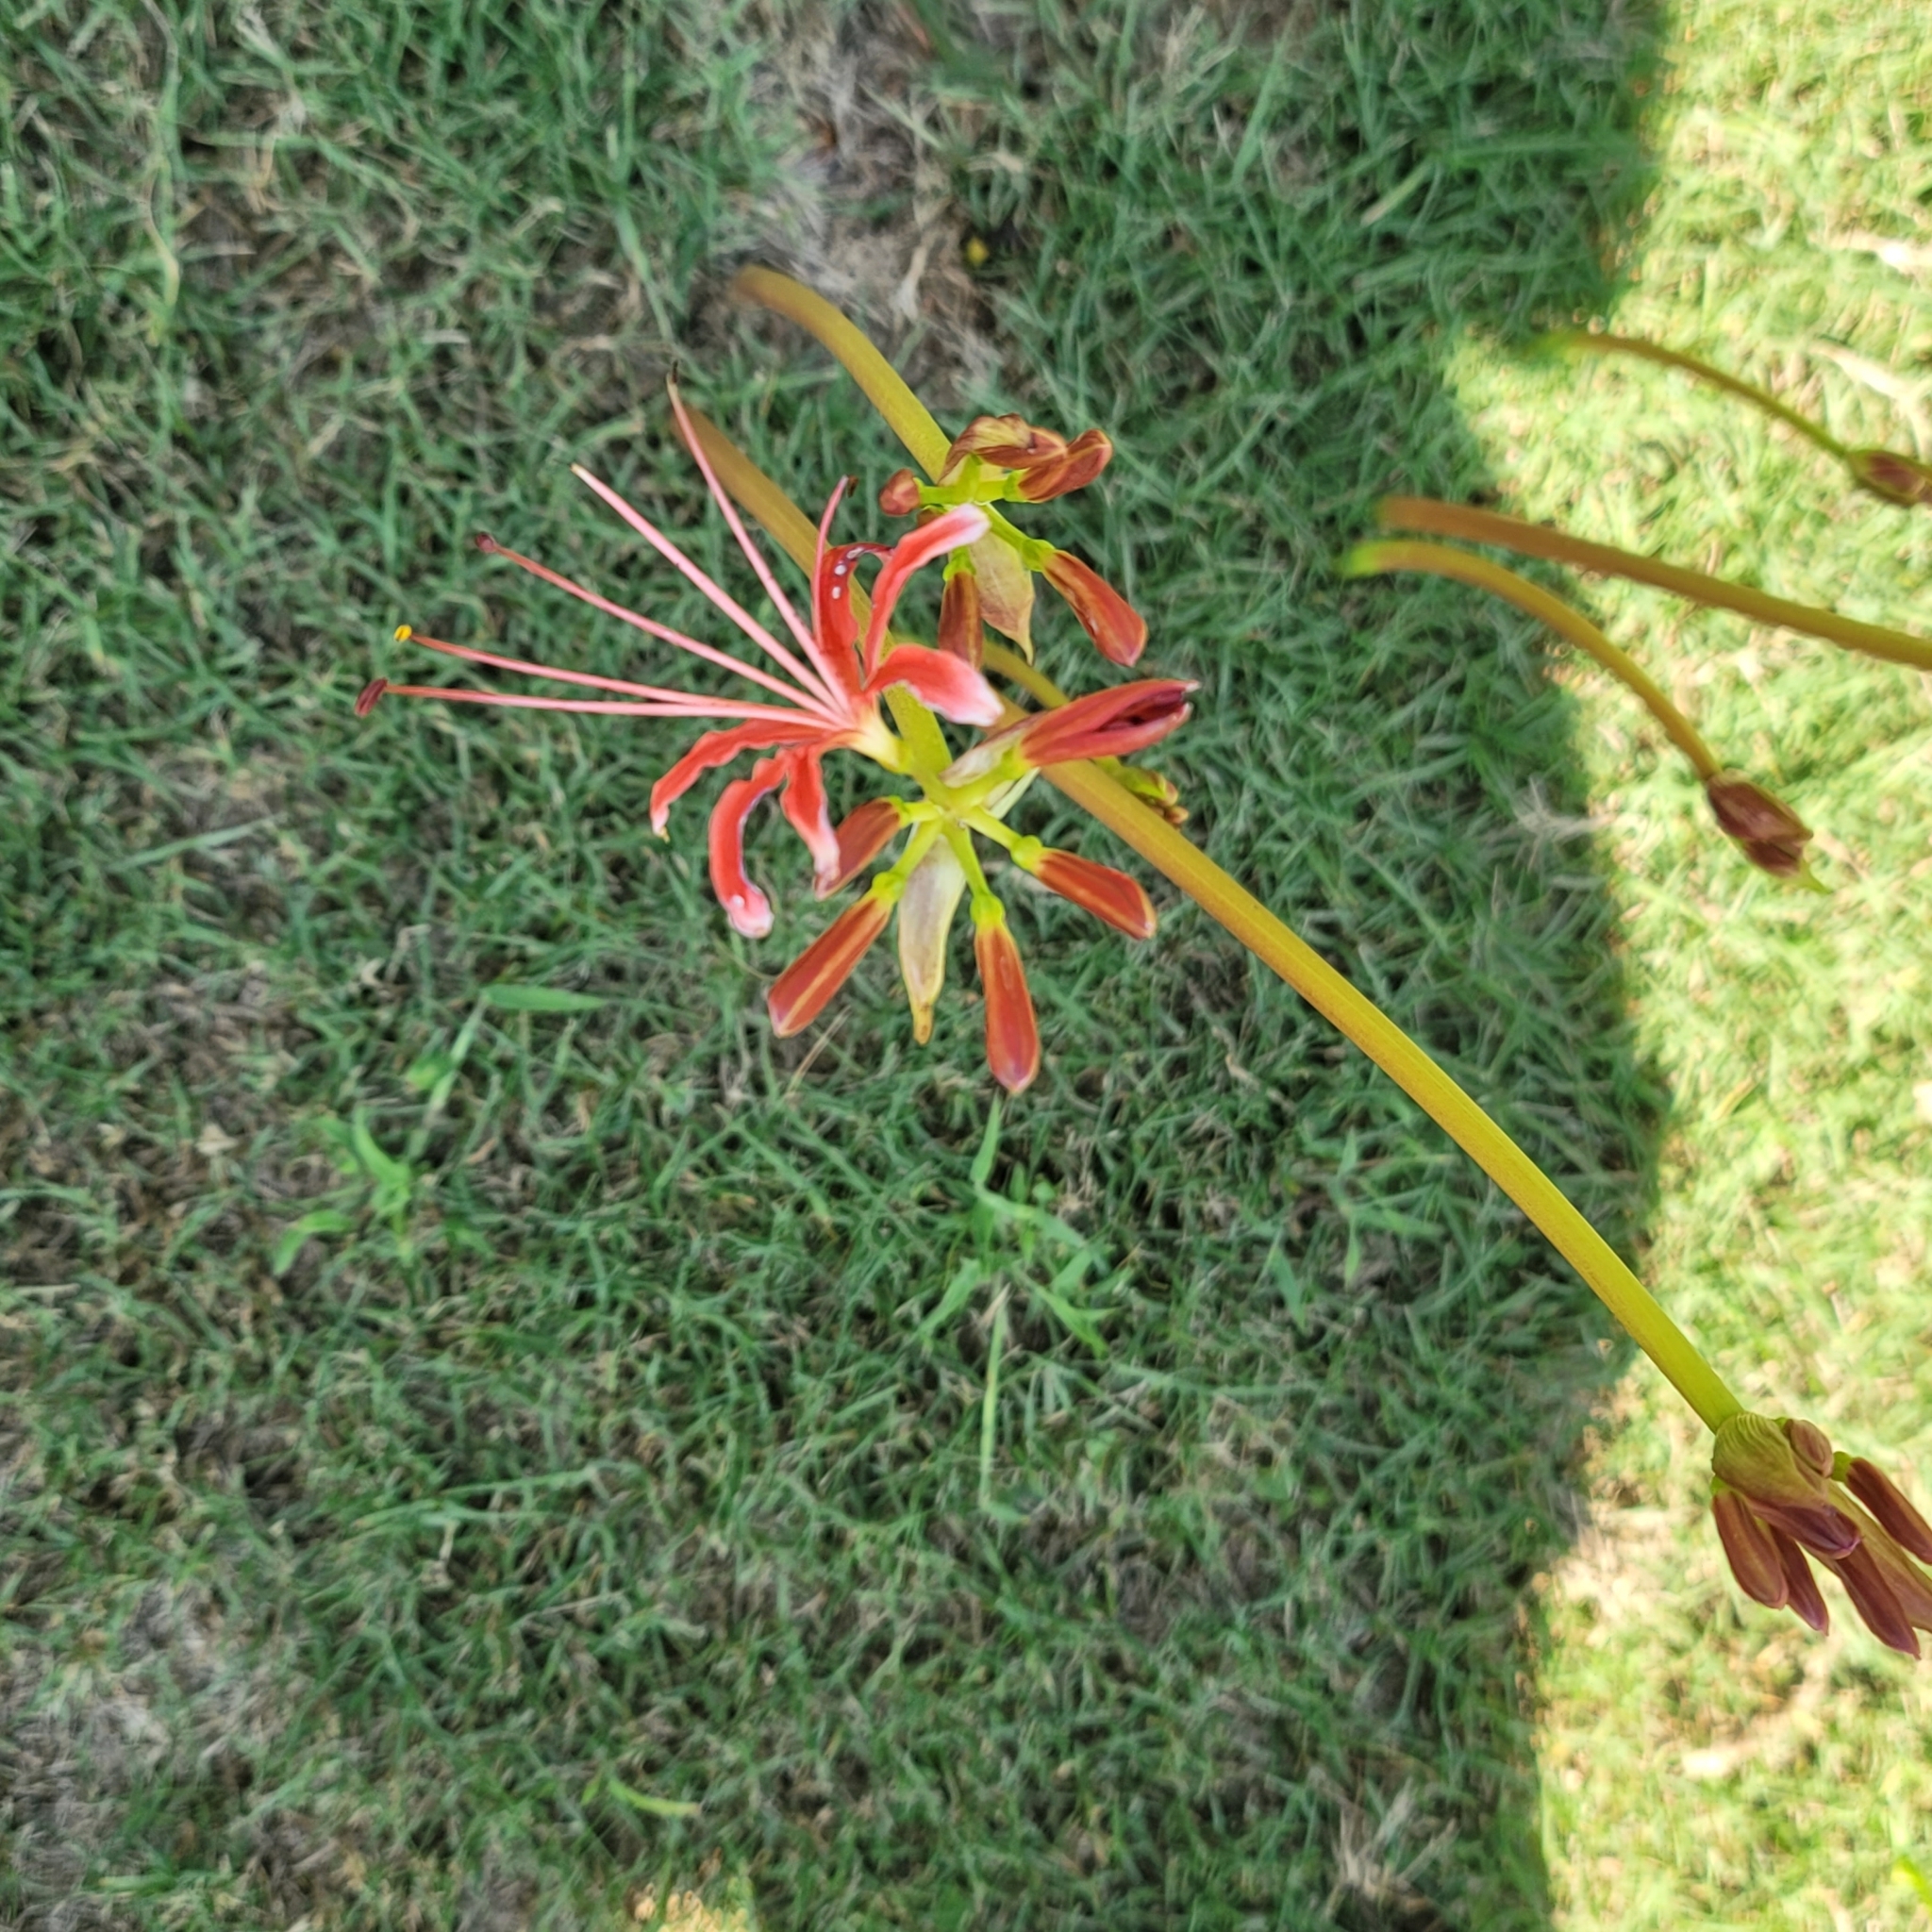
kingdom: Plantae
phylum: Tracheophyta
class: Liliopsida
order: Asparagales
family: Amaryllidaceae
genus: Lycoris
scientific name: Lycoris radiata
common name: Red spider lily
